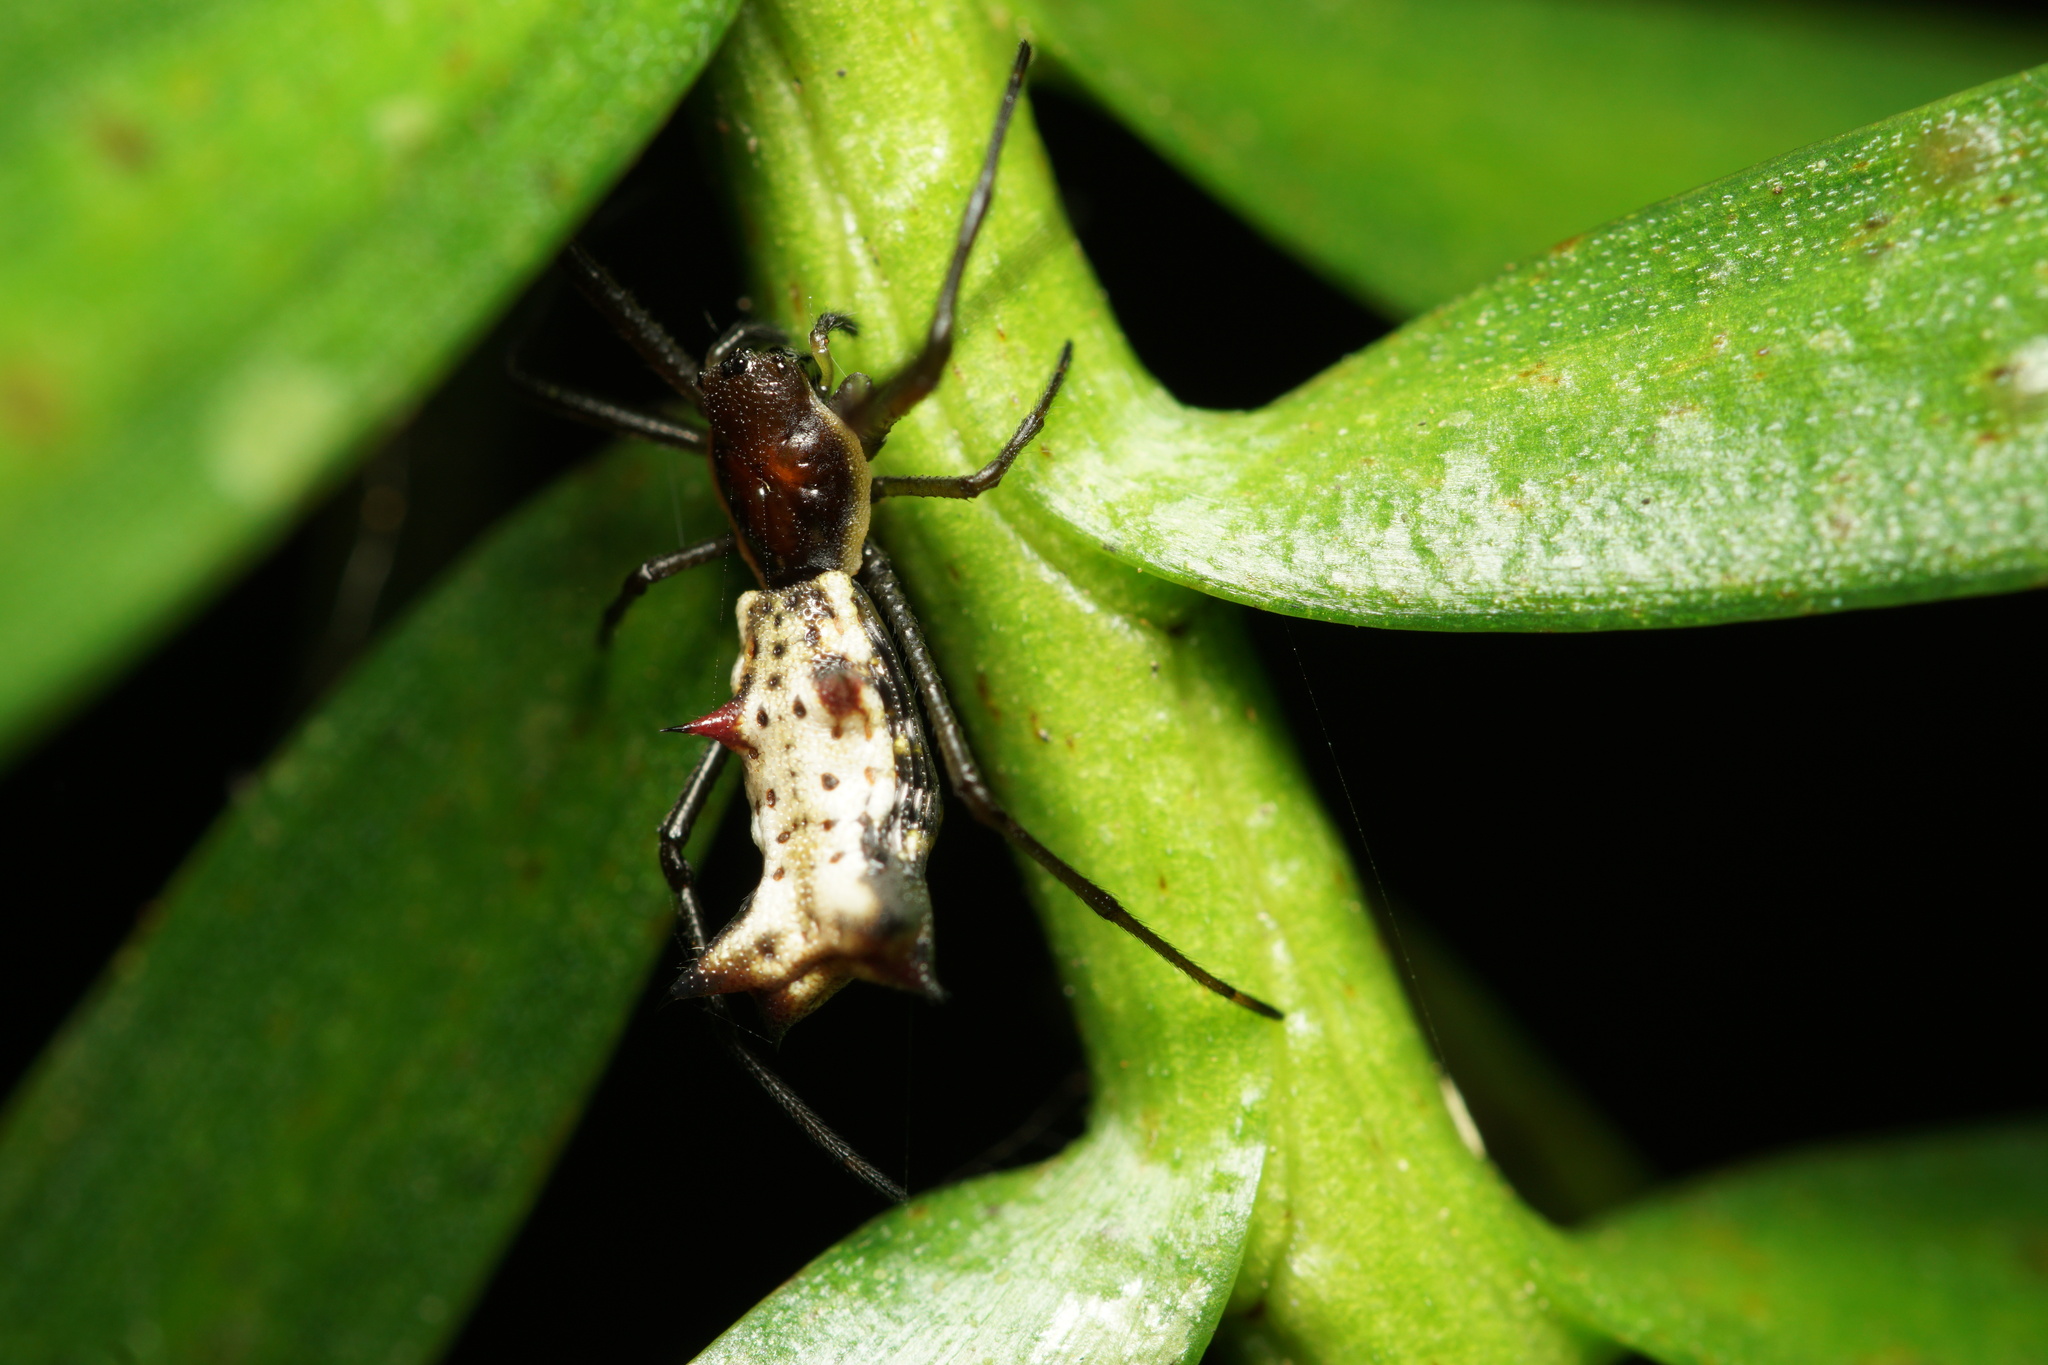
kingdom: Animalia
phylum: Arthropoda
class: Arachnida
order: Araneae
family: Araneidae
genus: Micrathena
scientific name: Micrathena nigrichelis
